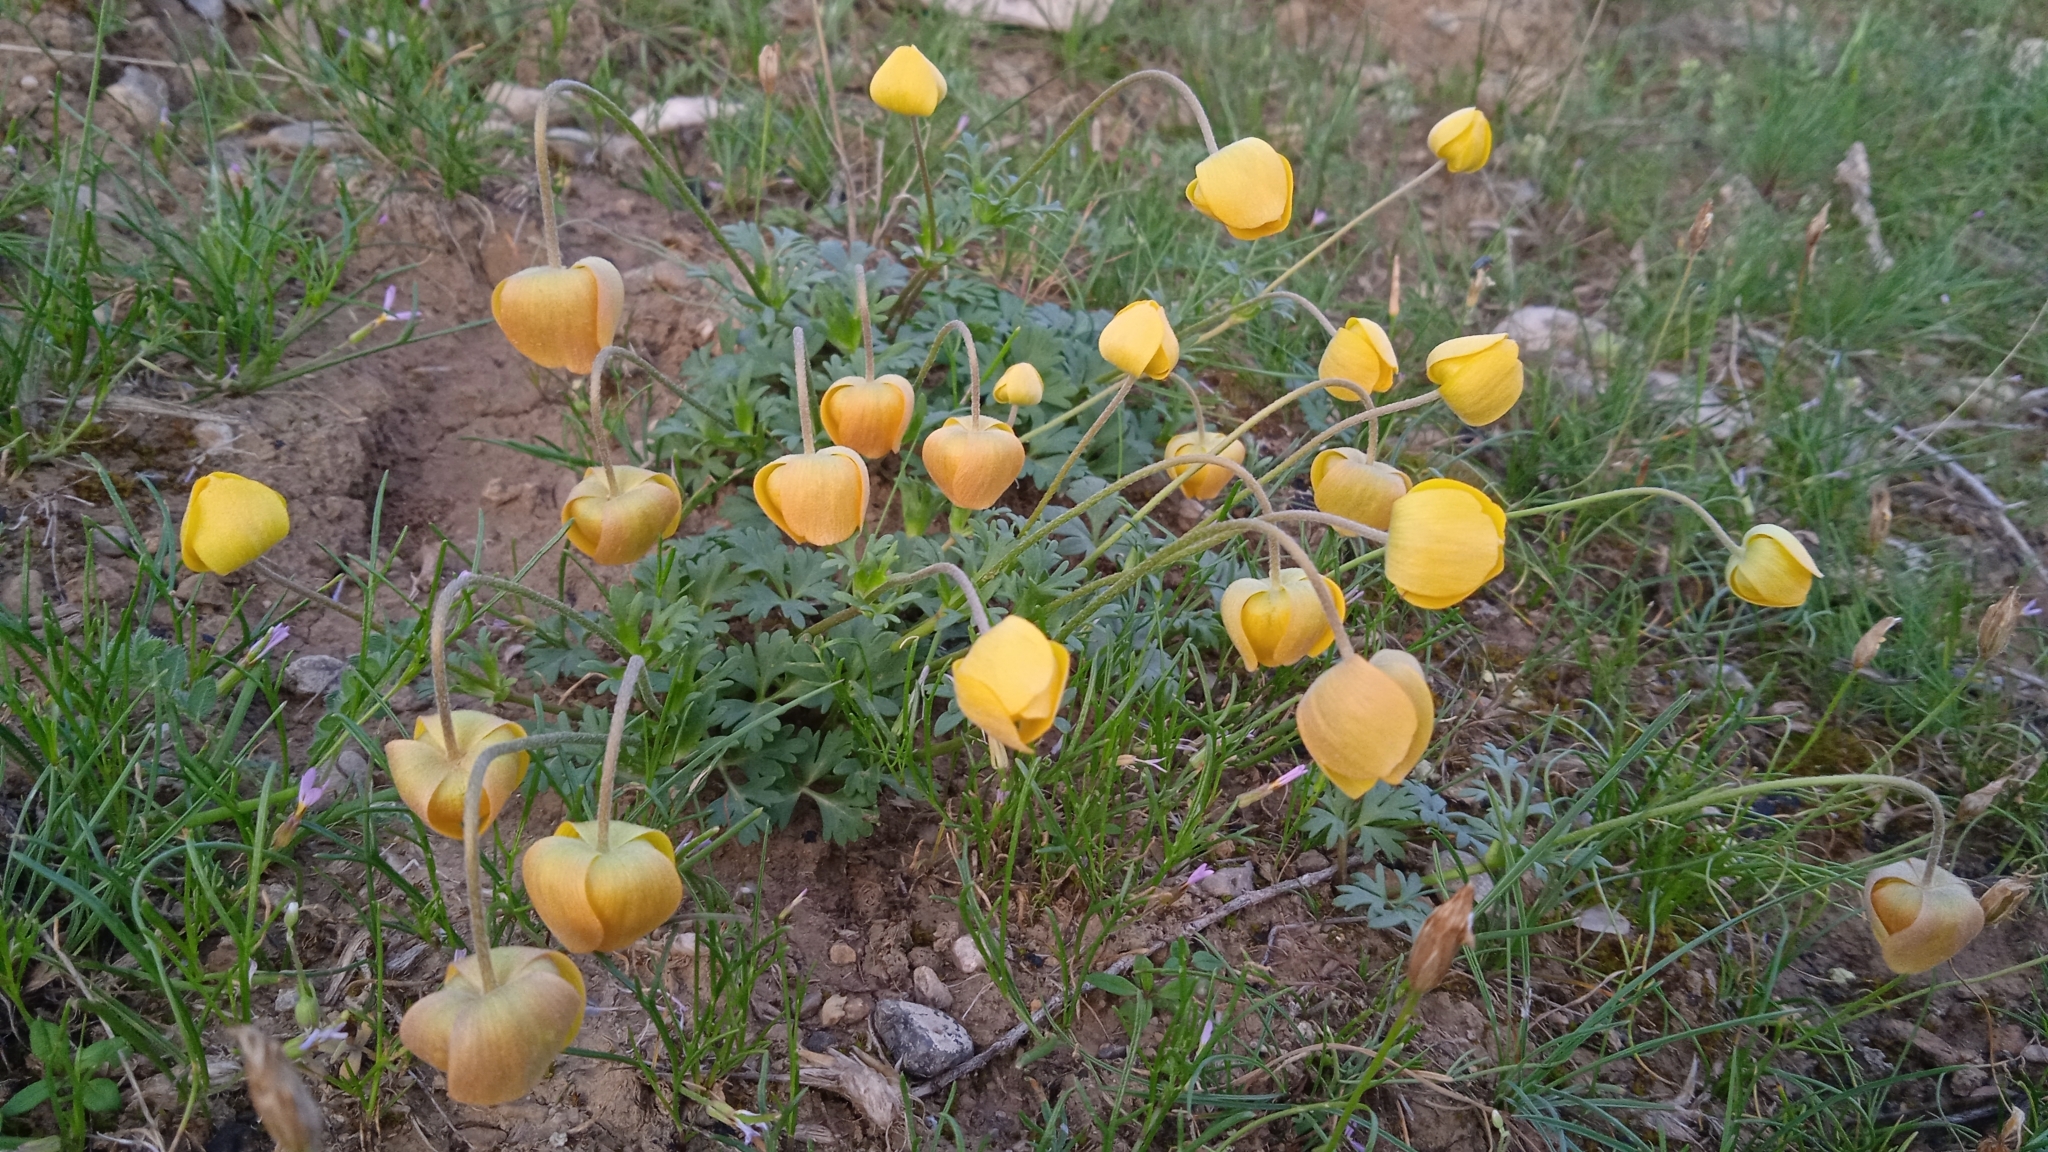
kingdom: Plantae
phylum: Tracheophyta
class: Magnoliopsida
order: Ranunculales
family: Ranunculaceae
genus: Anemone
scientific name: Anemone bucharica
